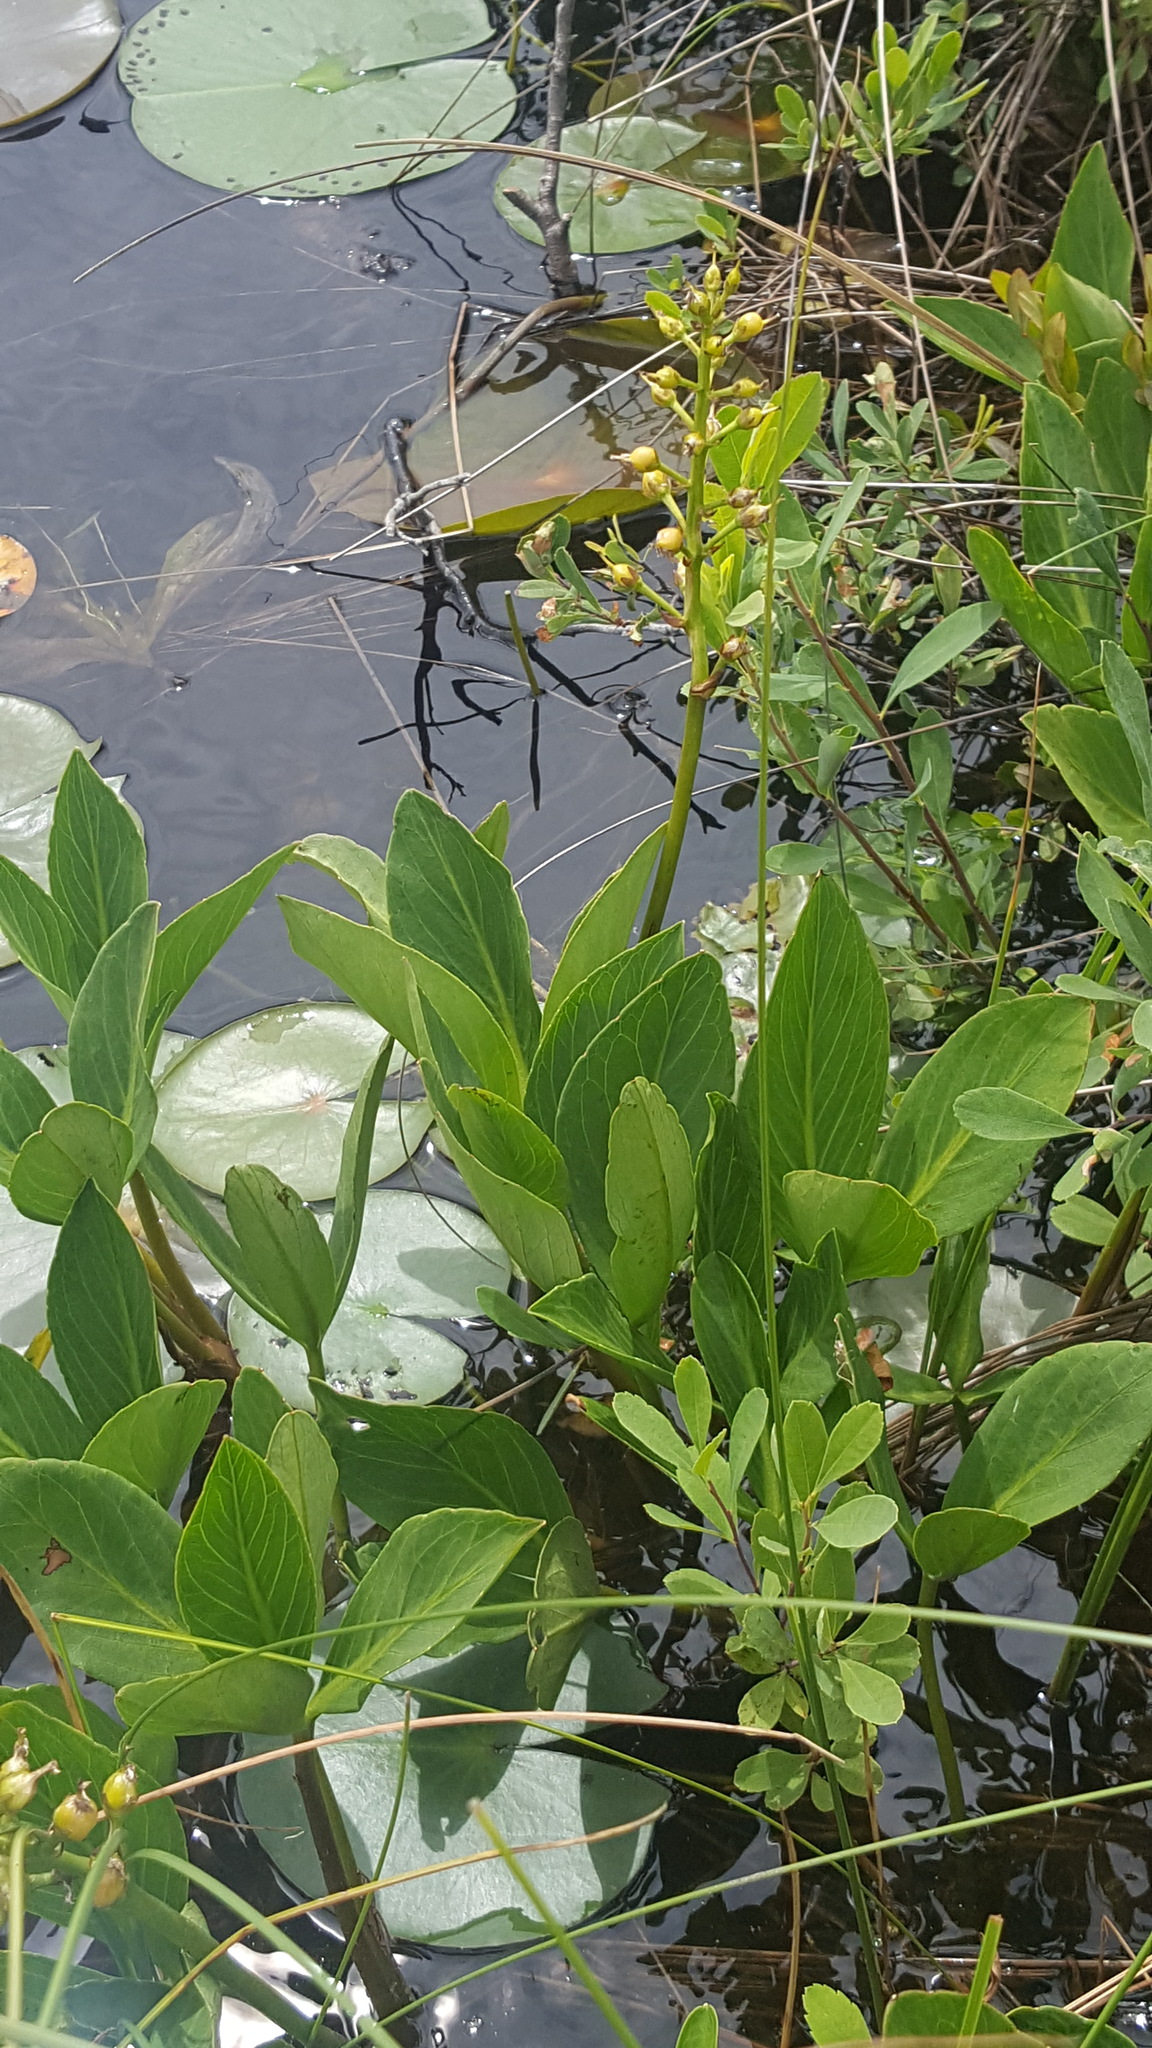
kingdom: Plantae
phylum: Tracheophyta
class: Magnoliopsida
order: Asterales
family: Menyanthaceae
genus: Menyanthes
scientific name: Menyanthes trifoliata
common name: Bogbean
